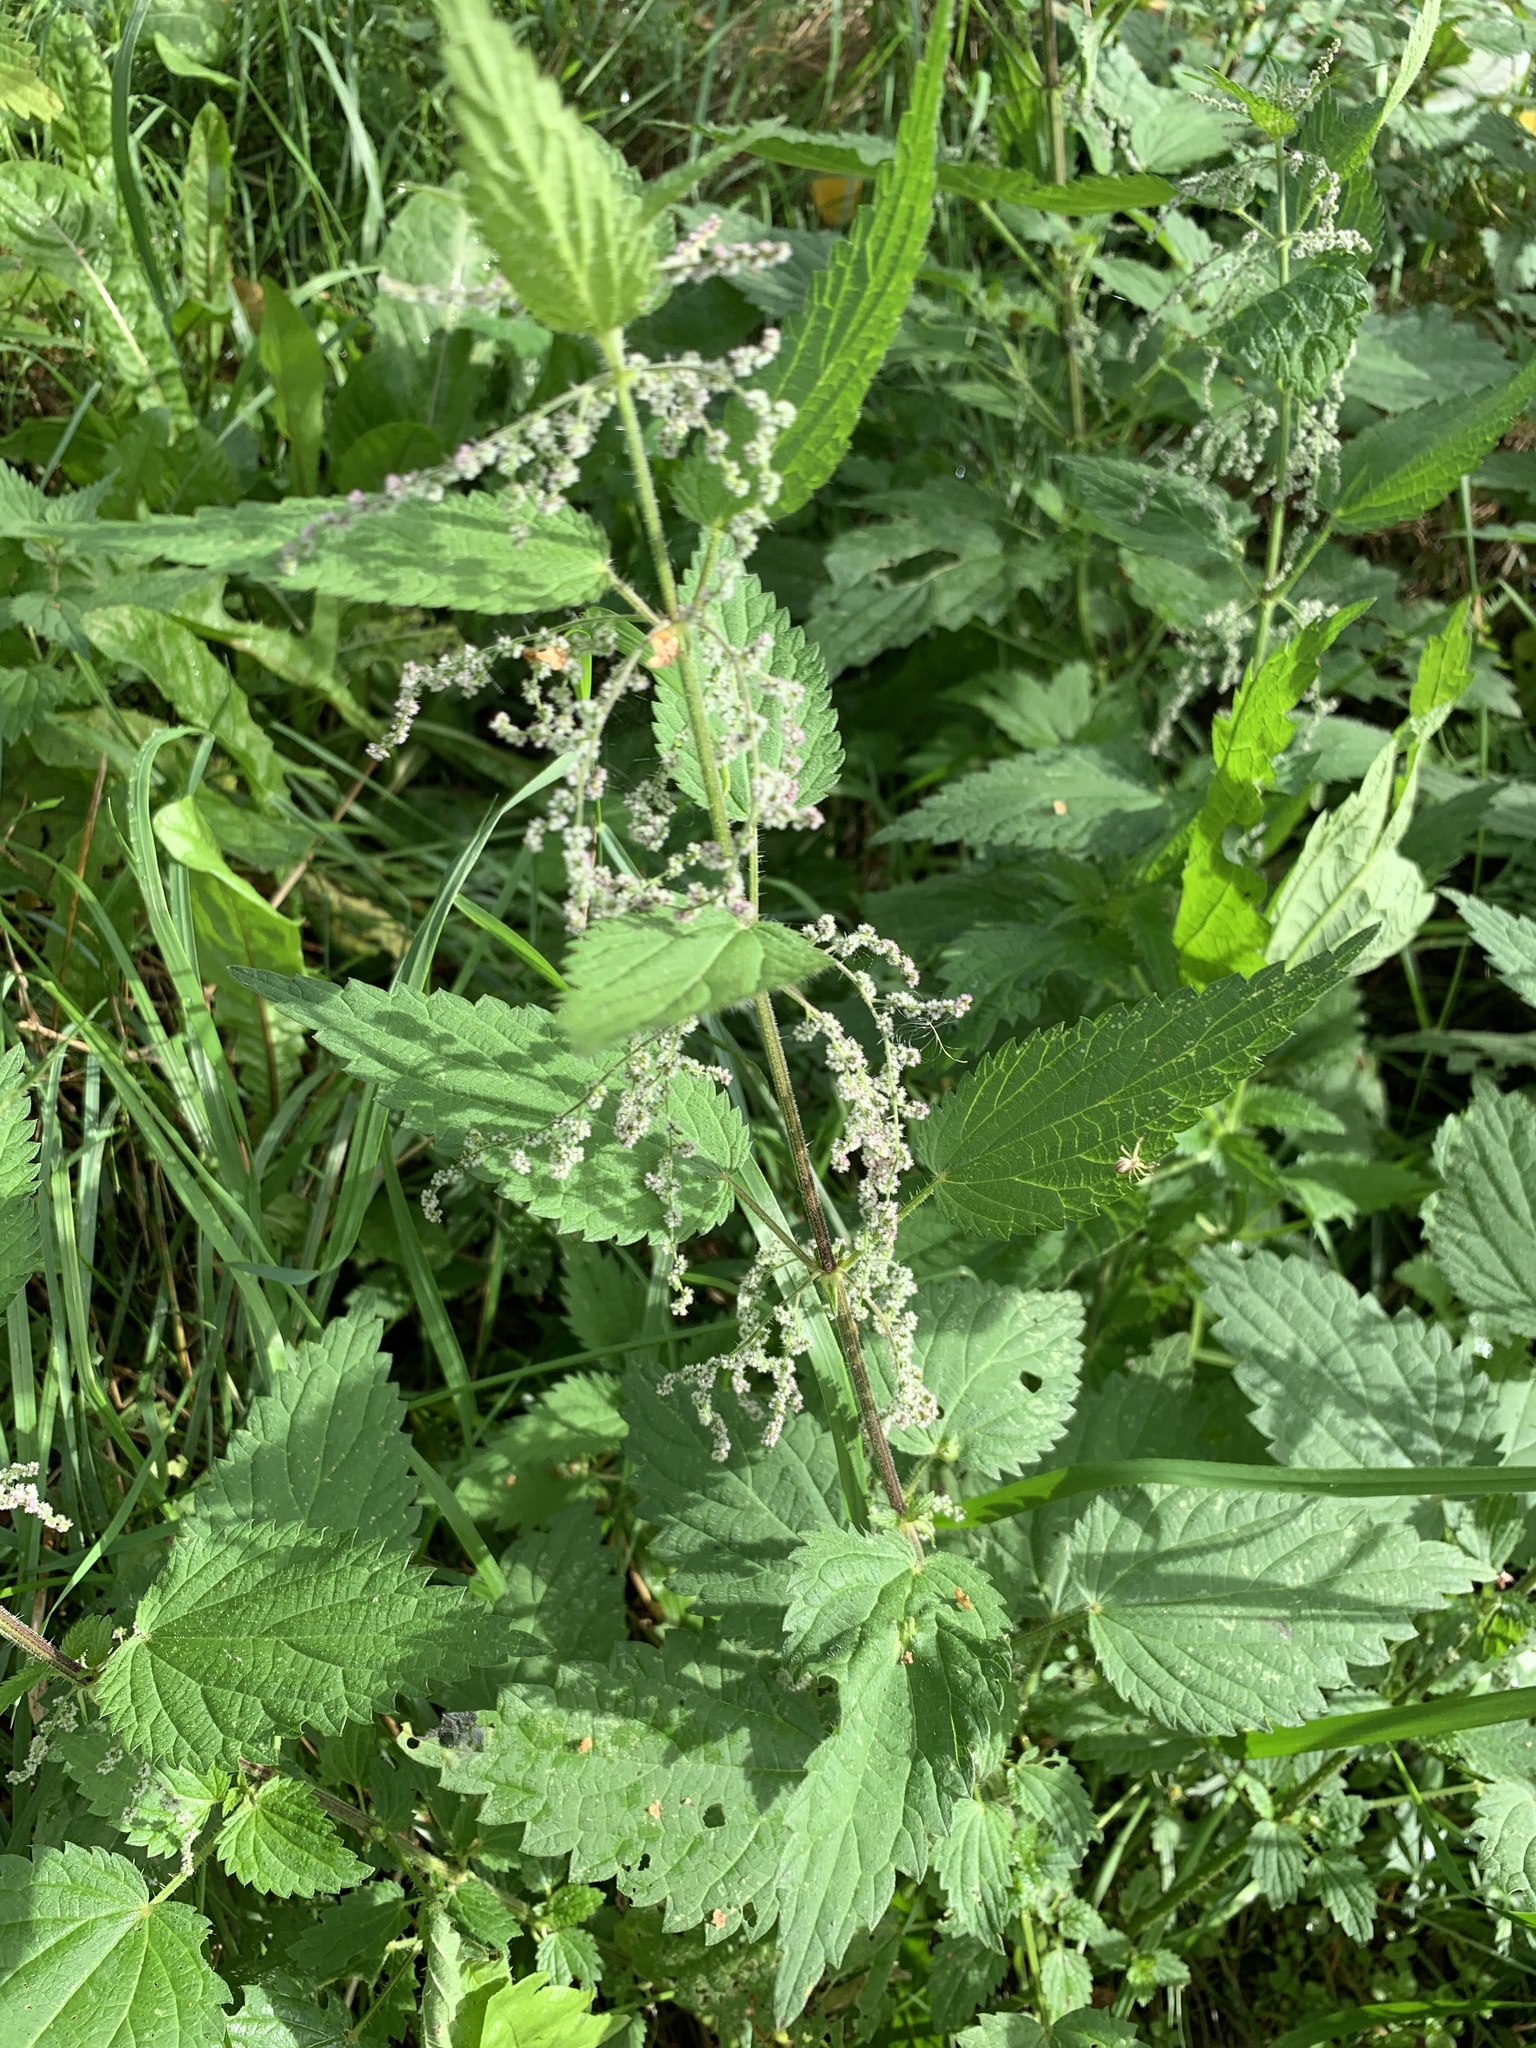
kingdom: Plantae
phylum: Tracheophyta
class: Magnoliopsida
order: Rosales
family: Urticaceae
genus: Urtica
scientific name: Urtica dioica
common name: Common nettle
